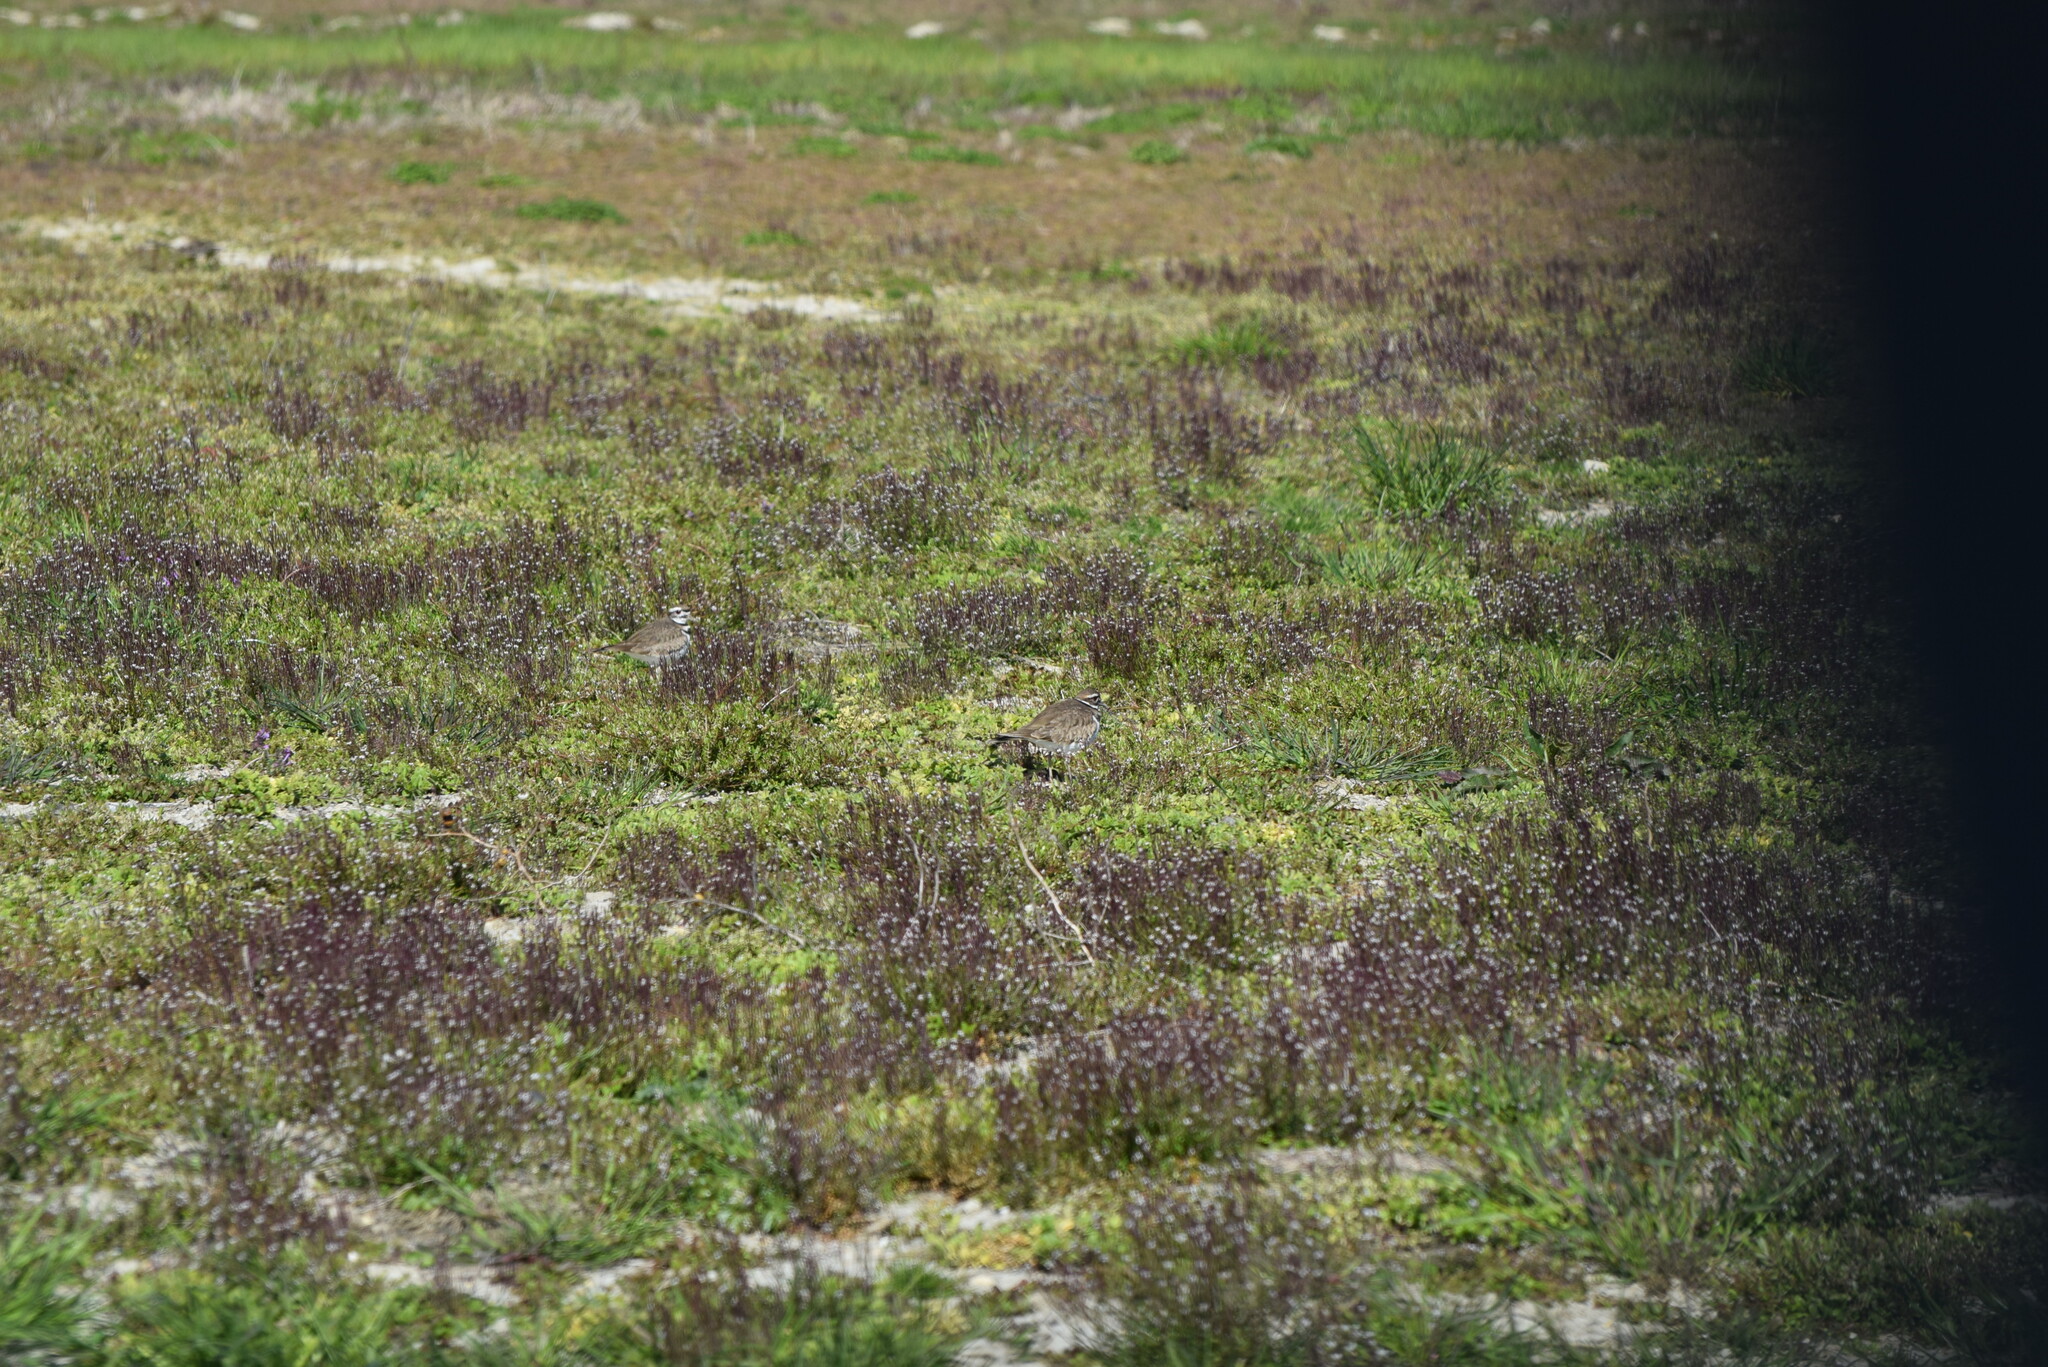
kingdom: Animalia
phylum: Chordata
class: Aves
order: Charadriiformes
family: Charadriidae
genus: Charadrius
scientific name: Charadrius vociferus
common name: Killdeer
